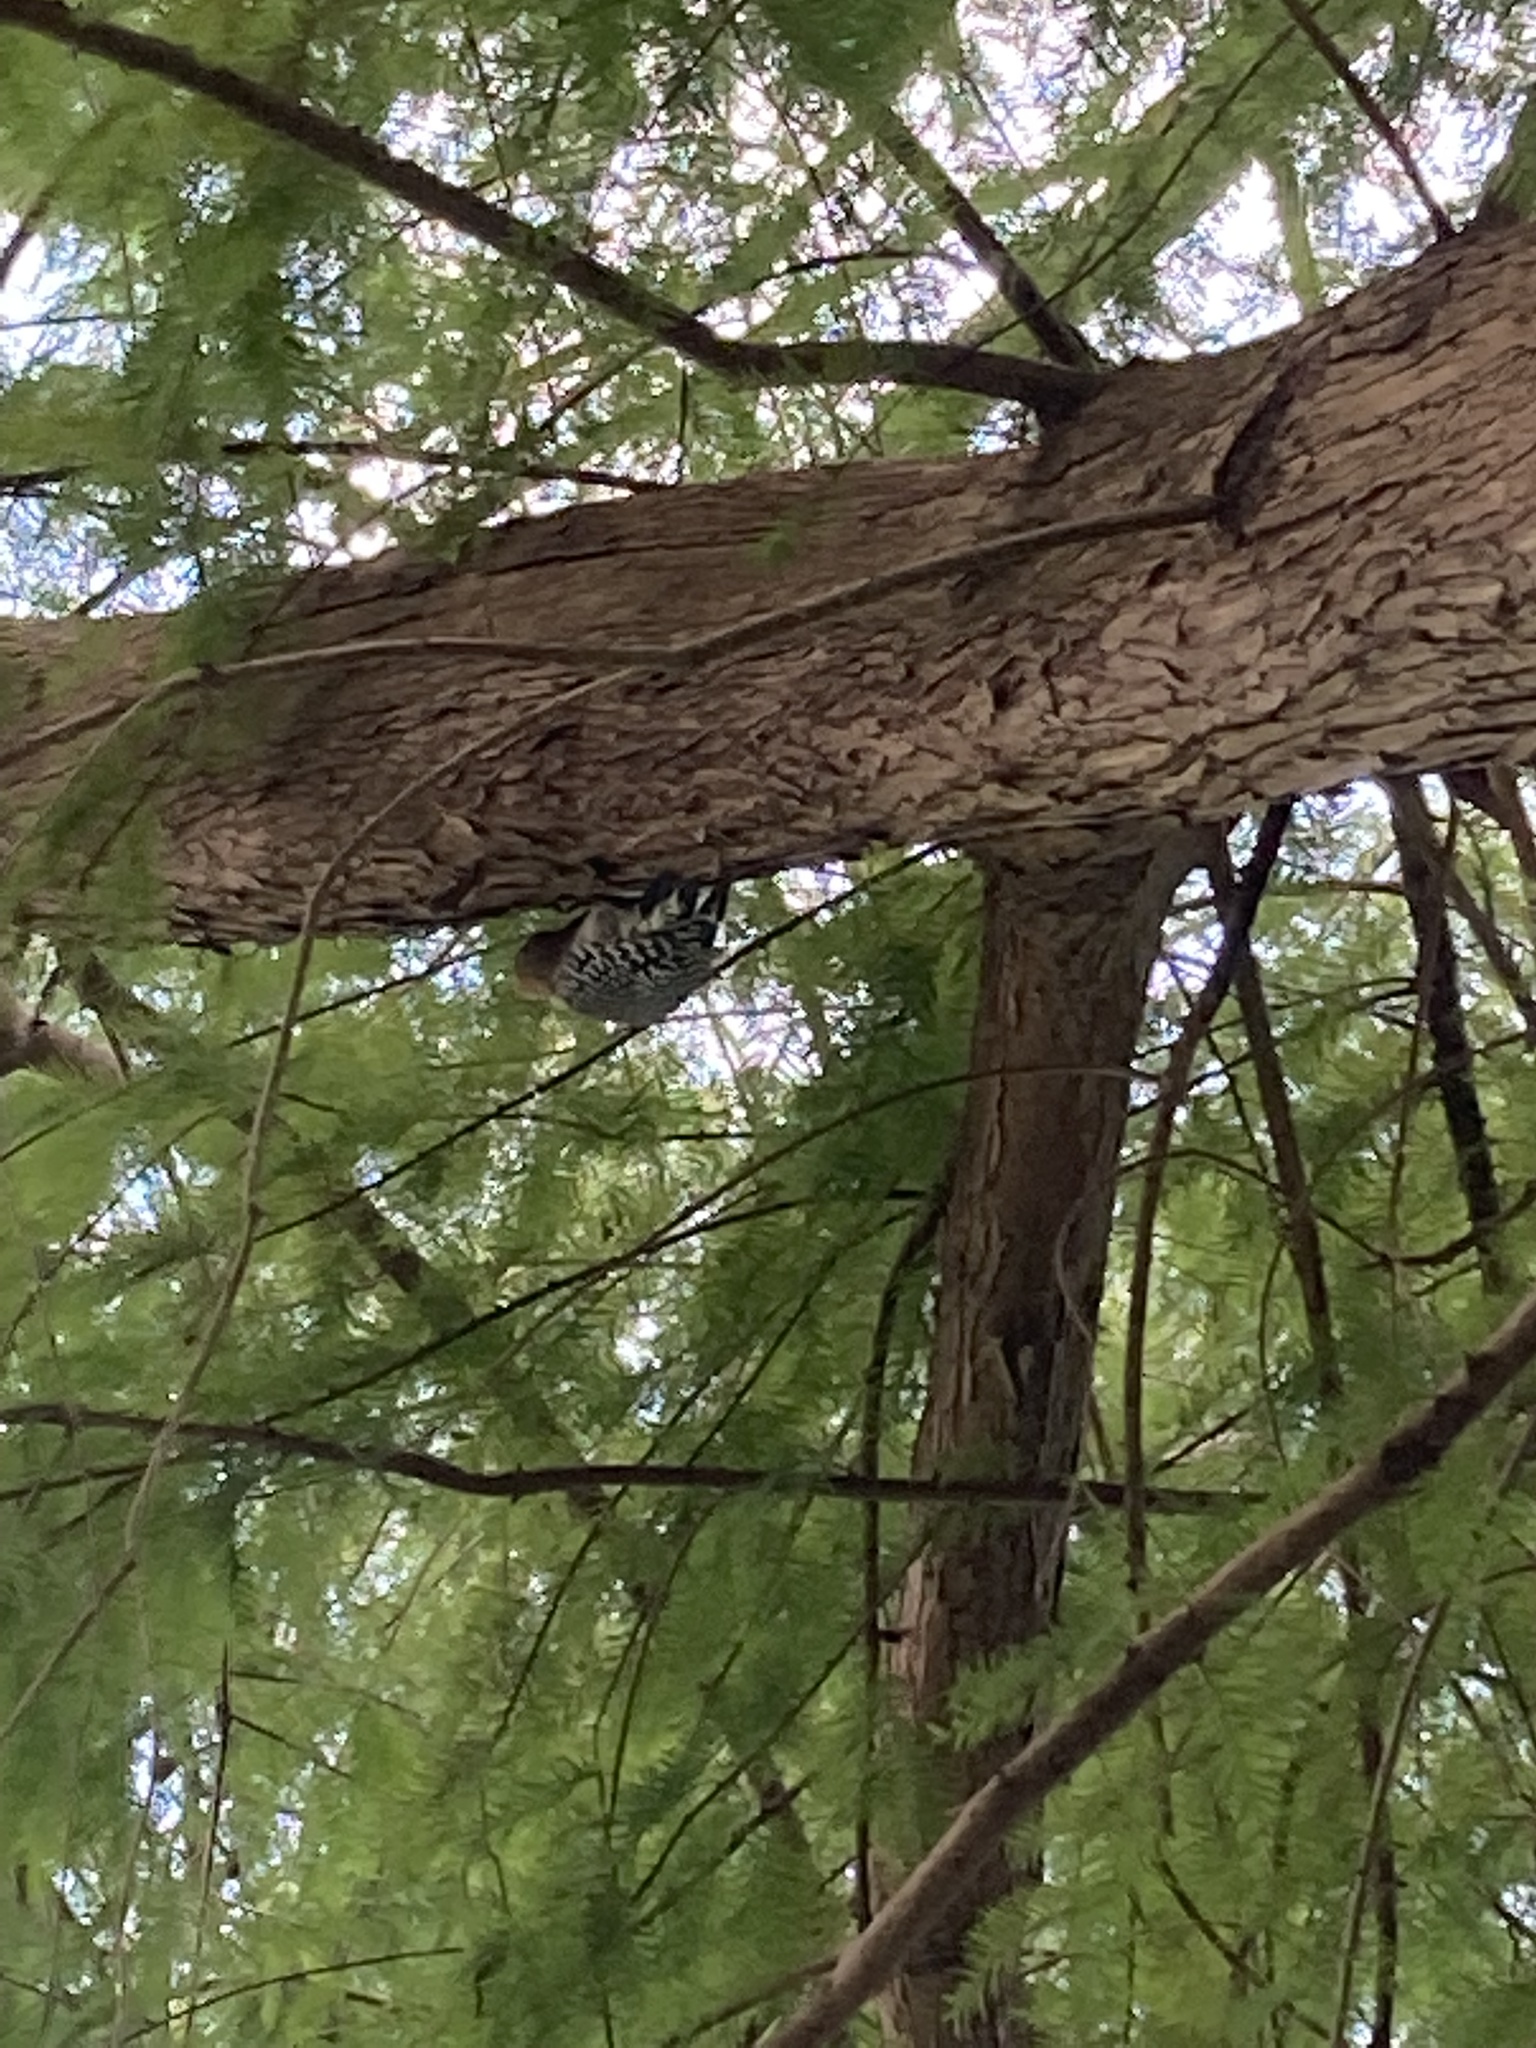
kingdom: Animalia
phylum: Chordata
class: Aves
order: Piciformes
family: Picidae
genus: Melanerpes
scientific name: Melanerpes carolinus
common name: Red-bellied woodpecker
